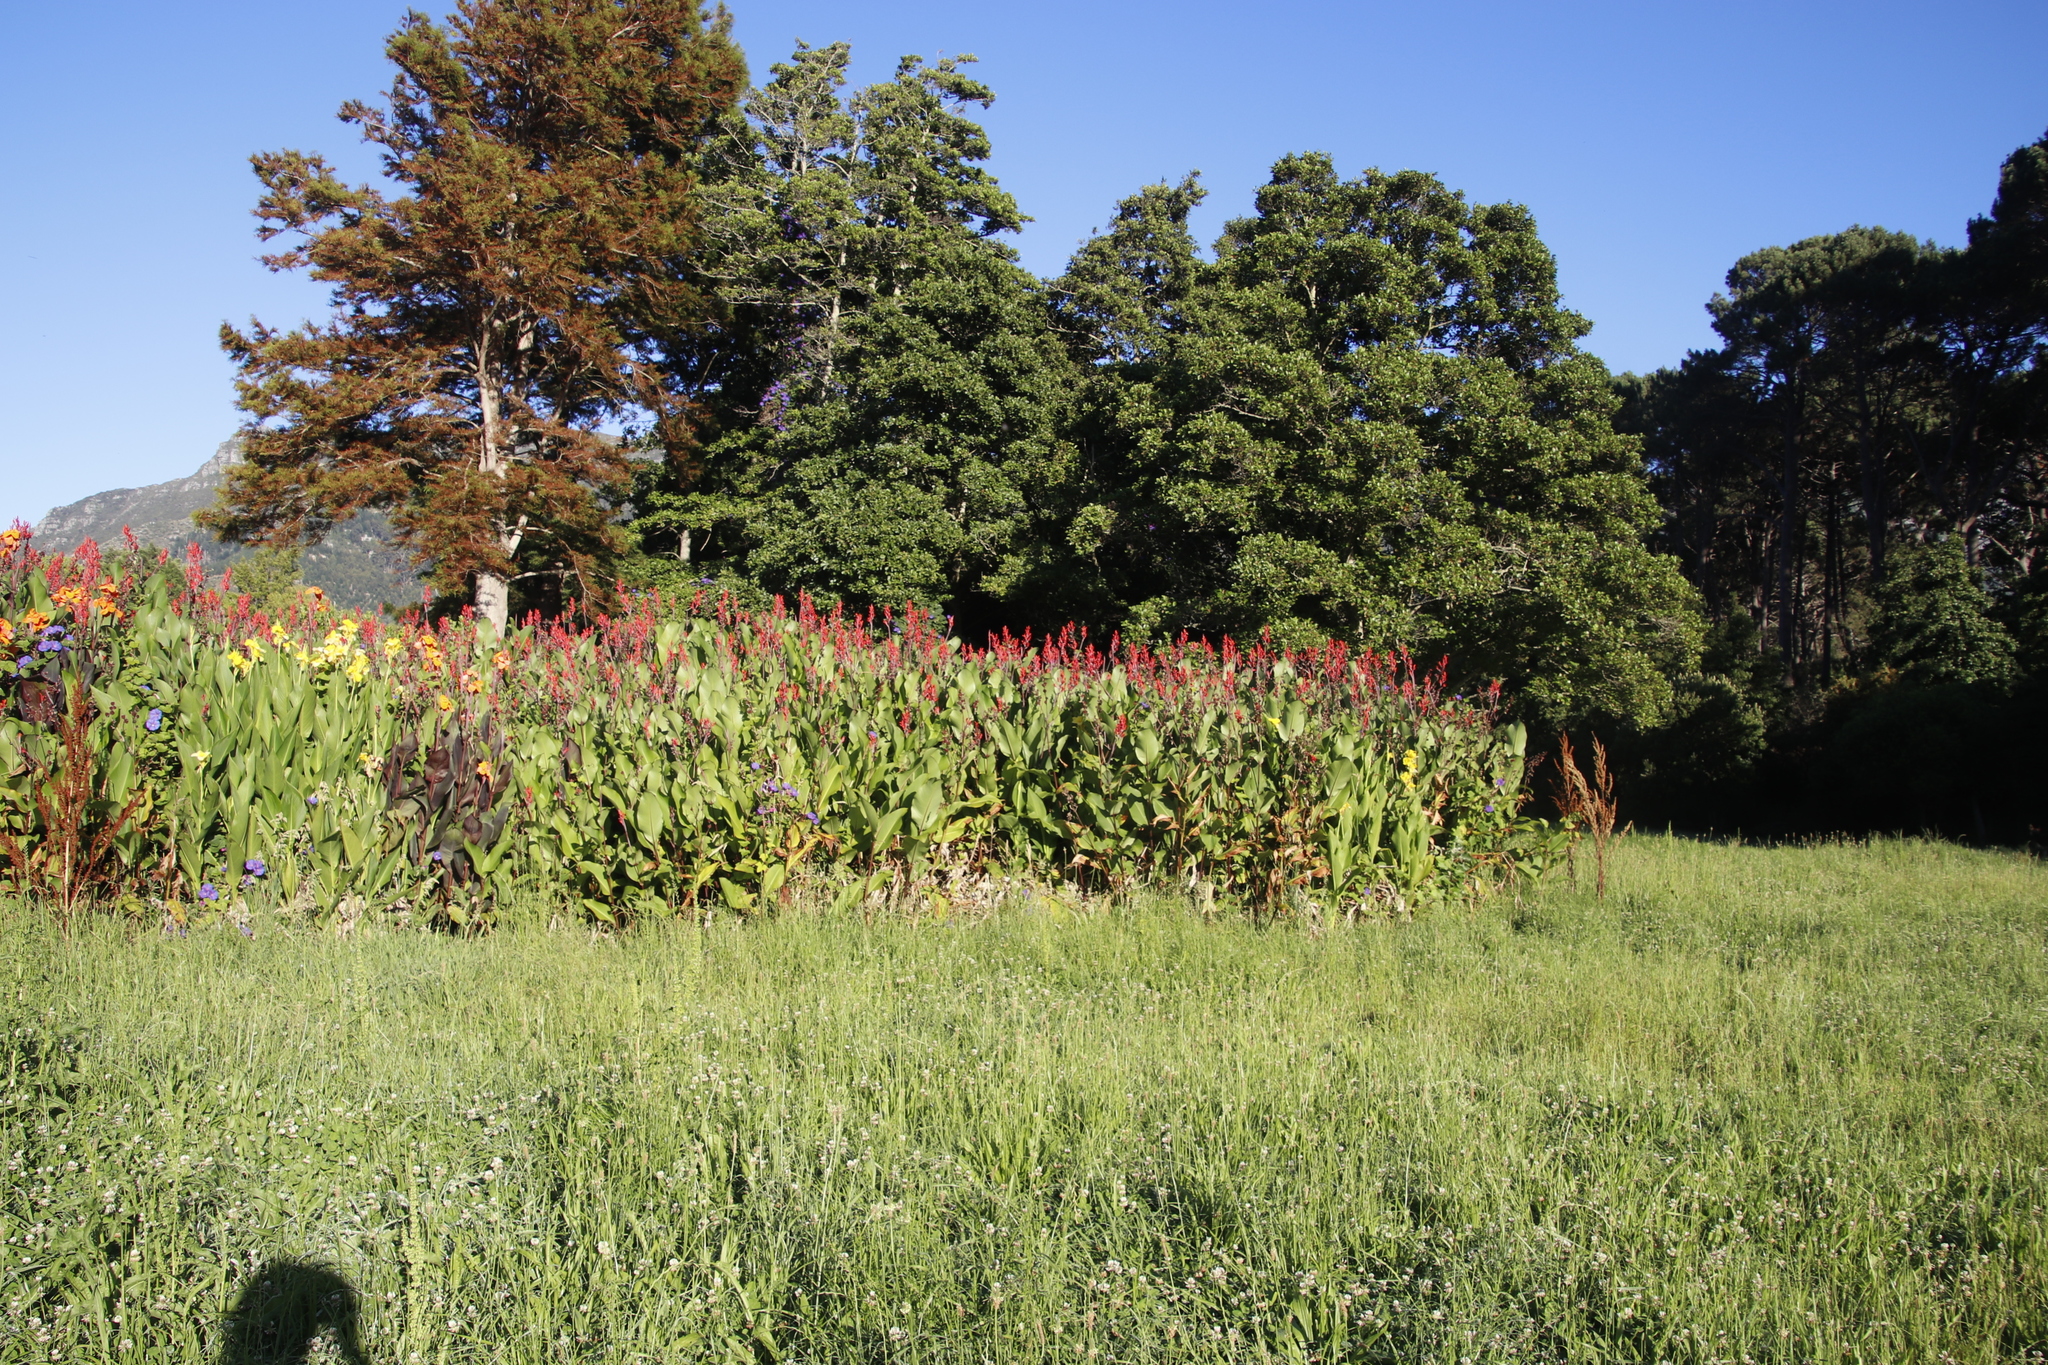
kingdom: Plantae
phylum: Tracheophyta
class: Liliopsida
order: Zingiberales
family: Cannaceae
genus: Canna
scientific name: Canna indica
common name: Indian shot
